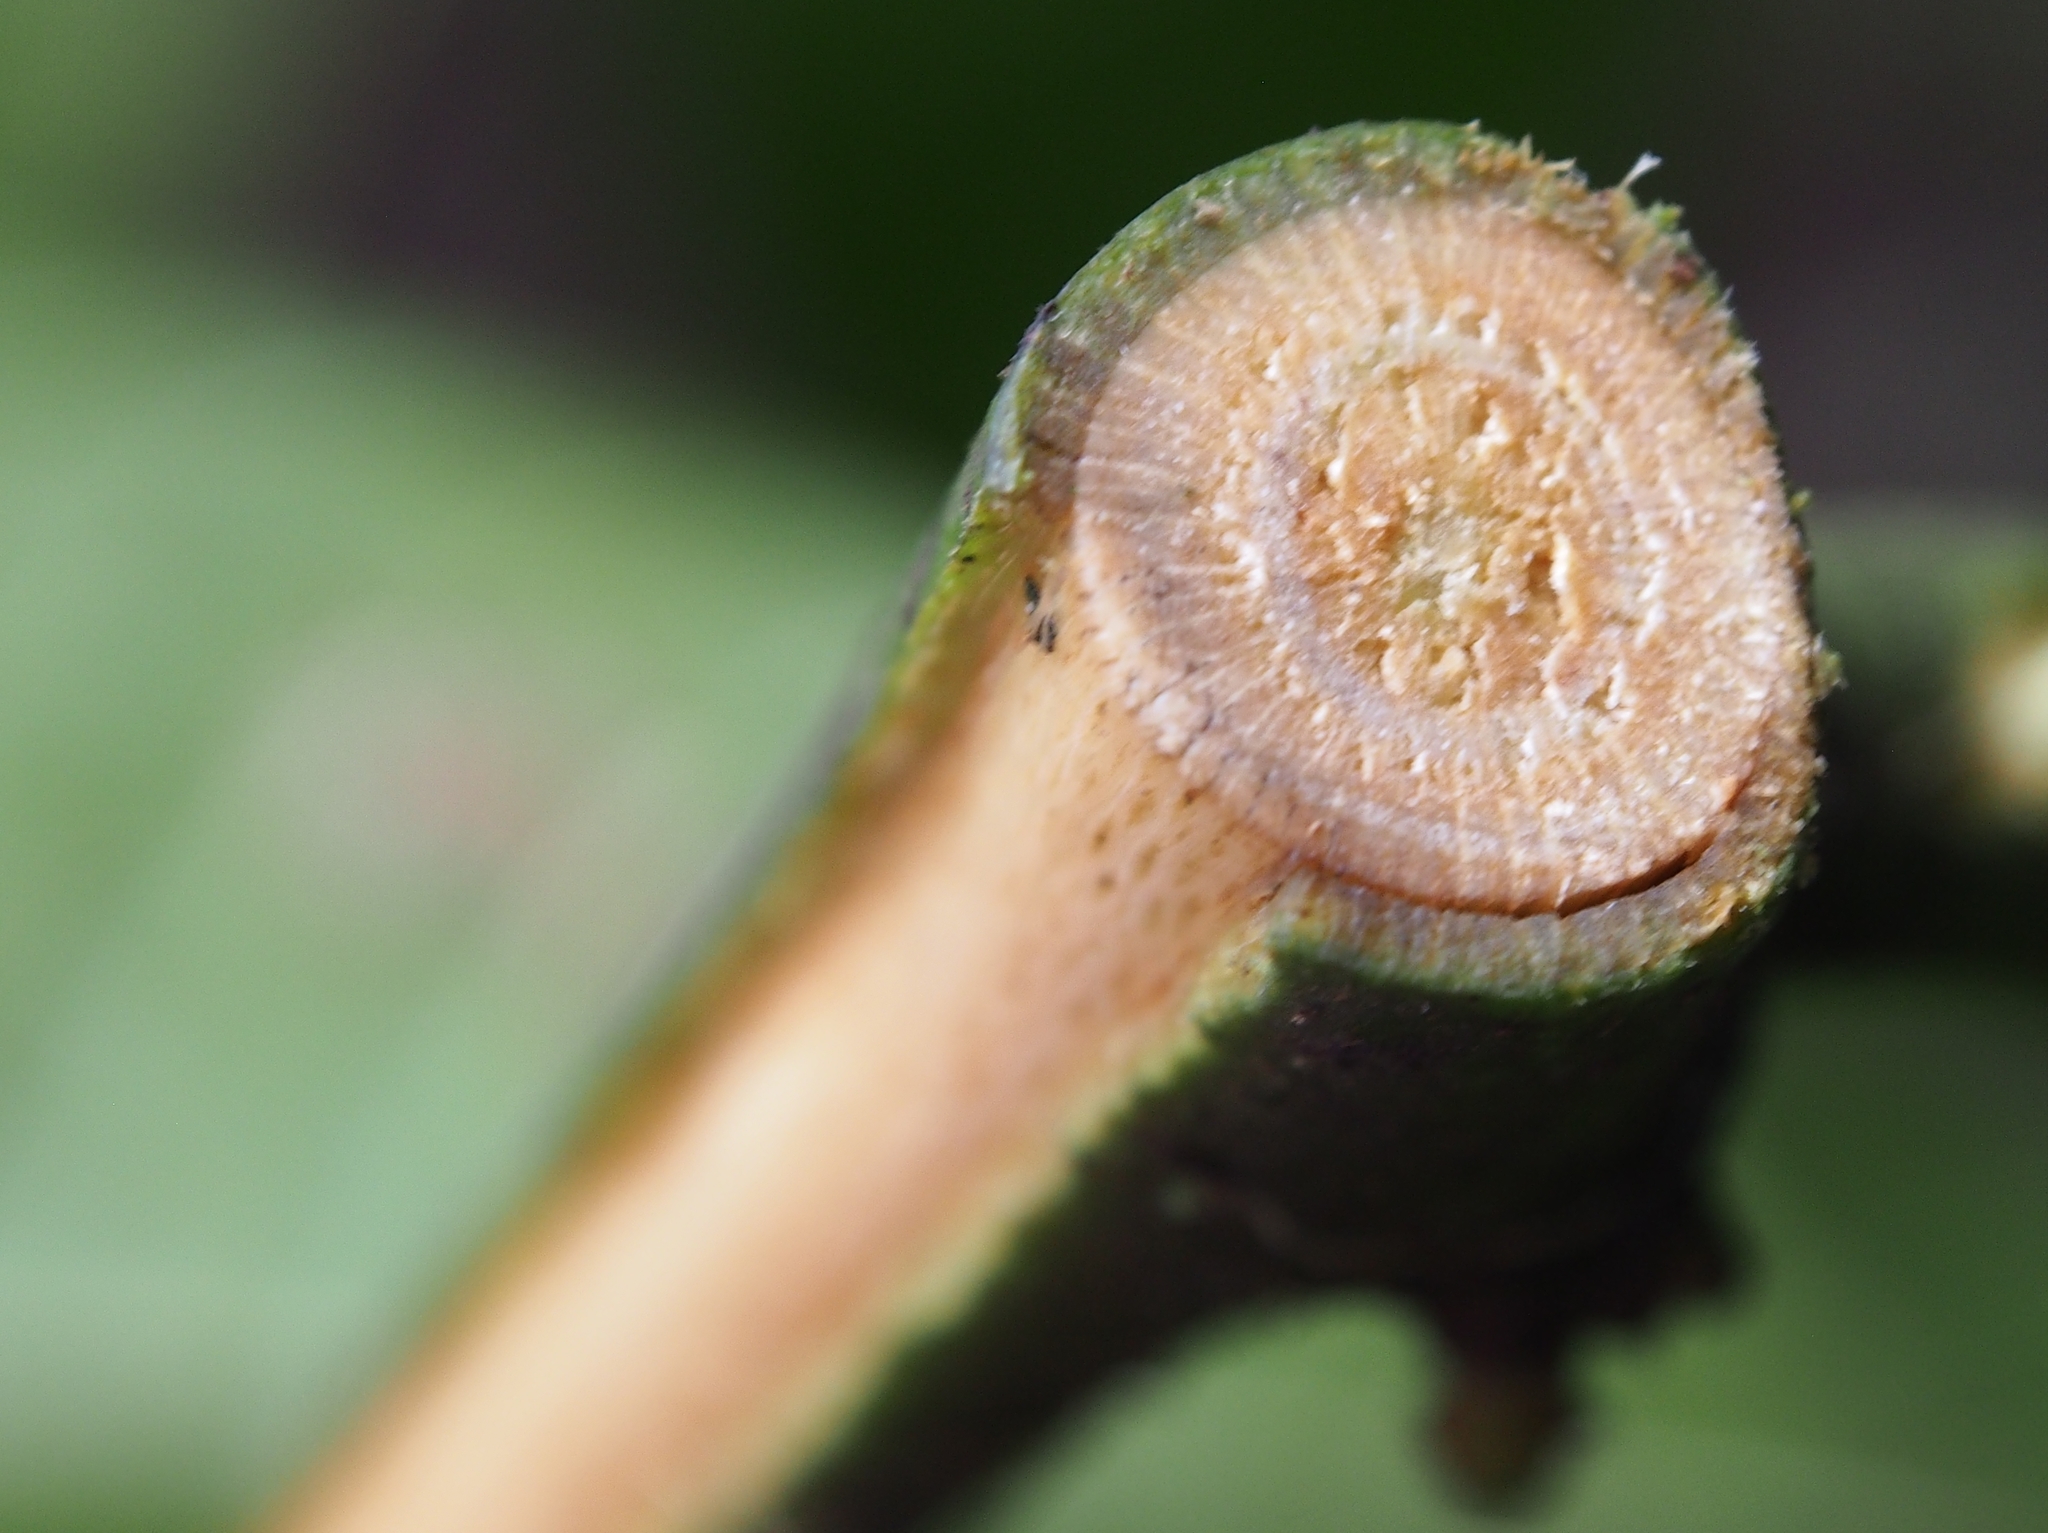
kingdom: Plantae
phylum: Tracheophyta
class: Magnoliopsida
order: Magnoliales
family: Annonaceae
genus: Guatteria
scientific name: Guatteria amplifolia
